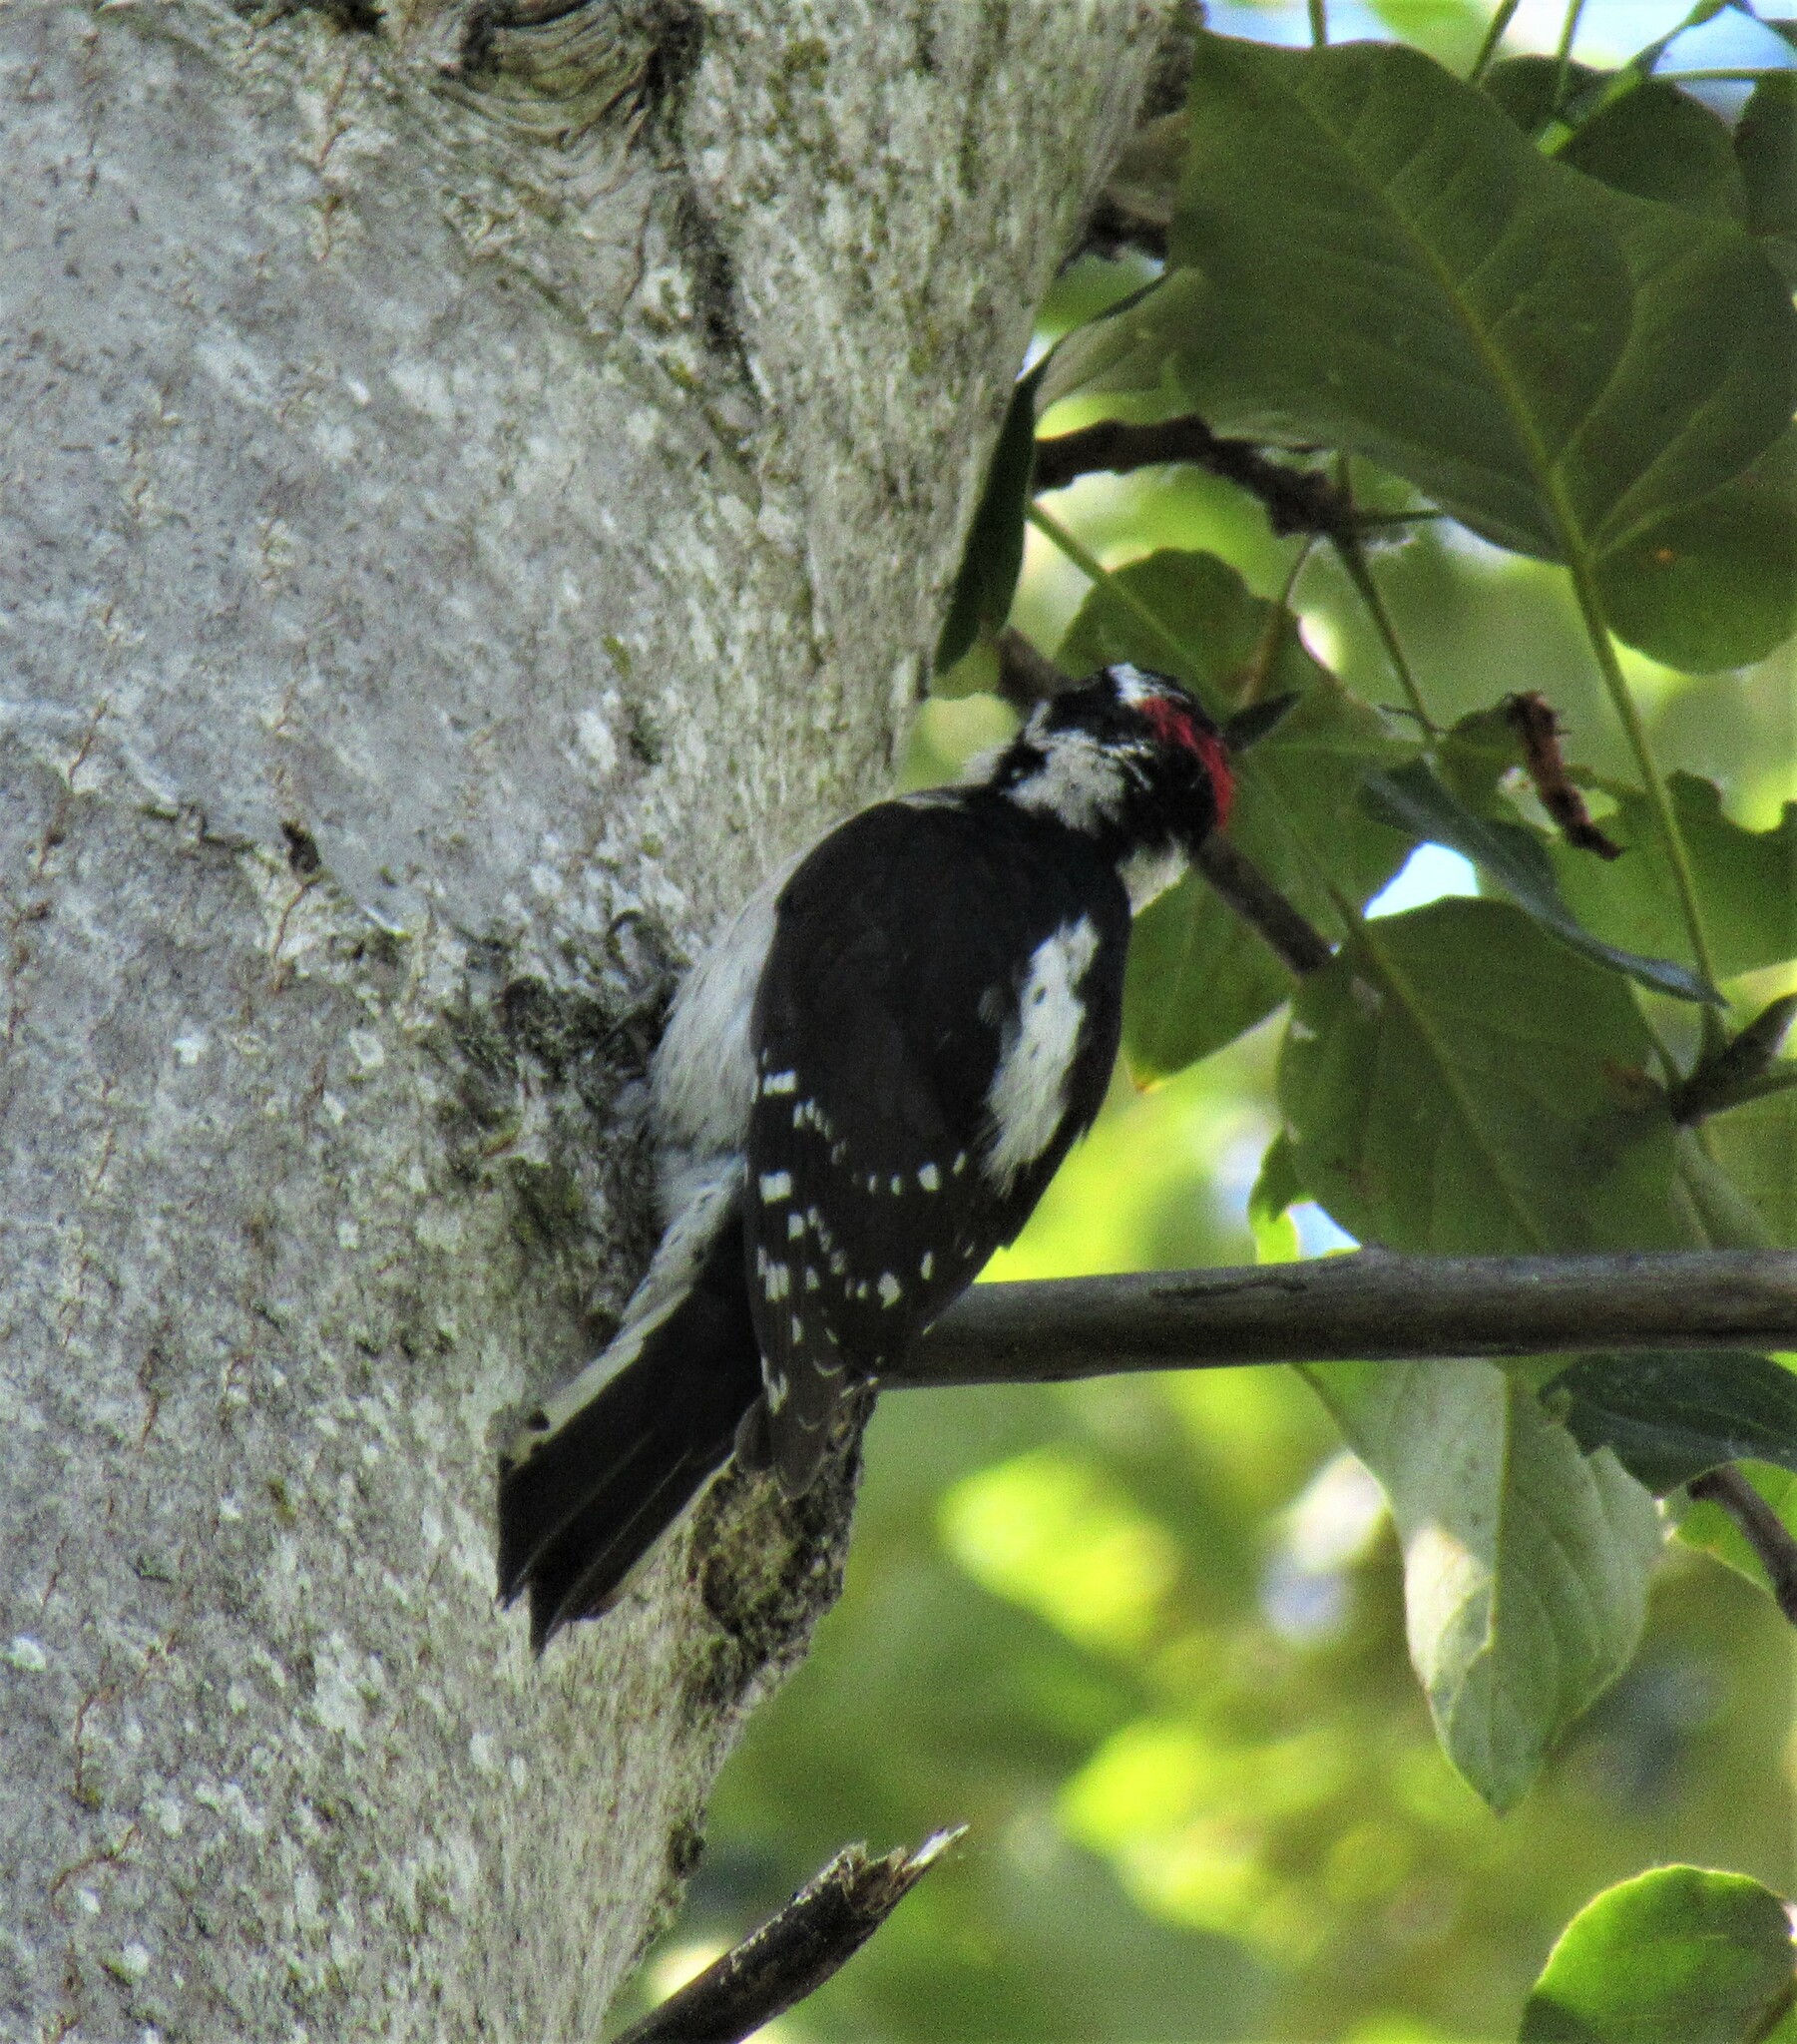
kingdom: Animalia
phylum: Chordata
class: Aves
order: Piciformes
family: Picidae
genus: Dryobates
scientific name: Dryobates pubescens
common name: Downy woodpecker
